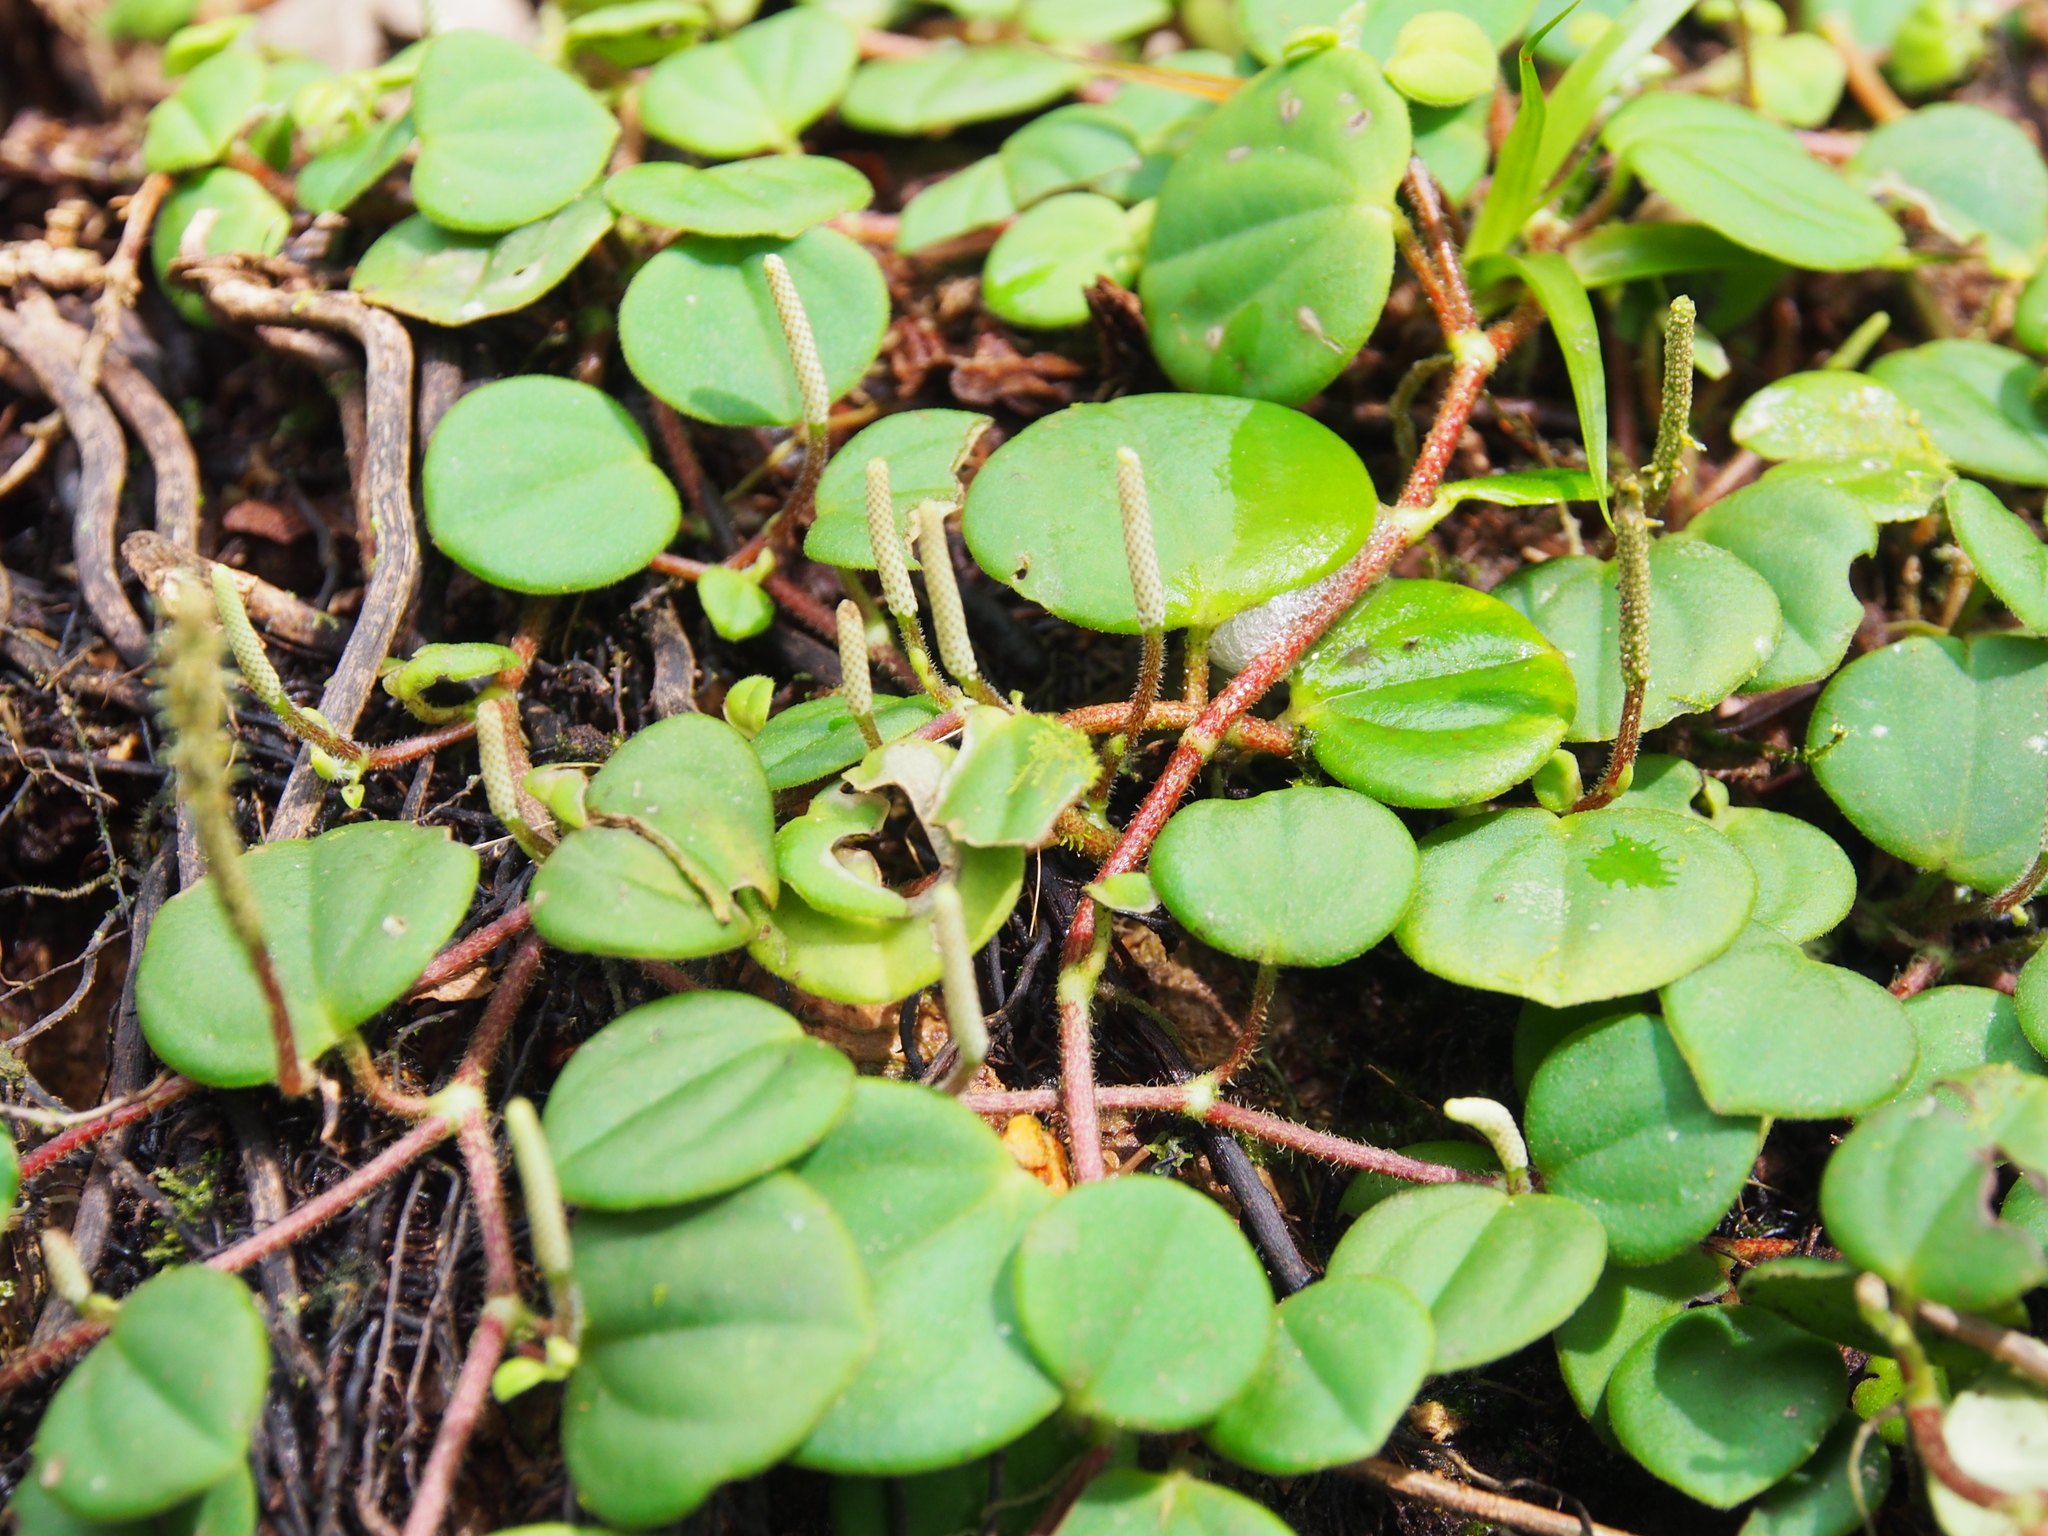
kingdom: Plantae
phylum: Tracheophyta
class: Magnoliopsida
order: Piperales
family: Piperaceae
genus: Peperomia
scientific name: Peperomia serpens
